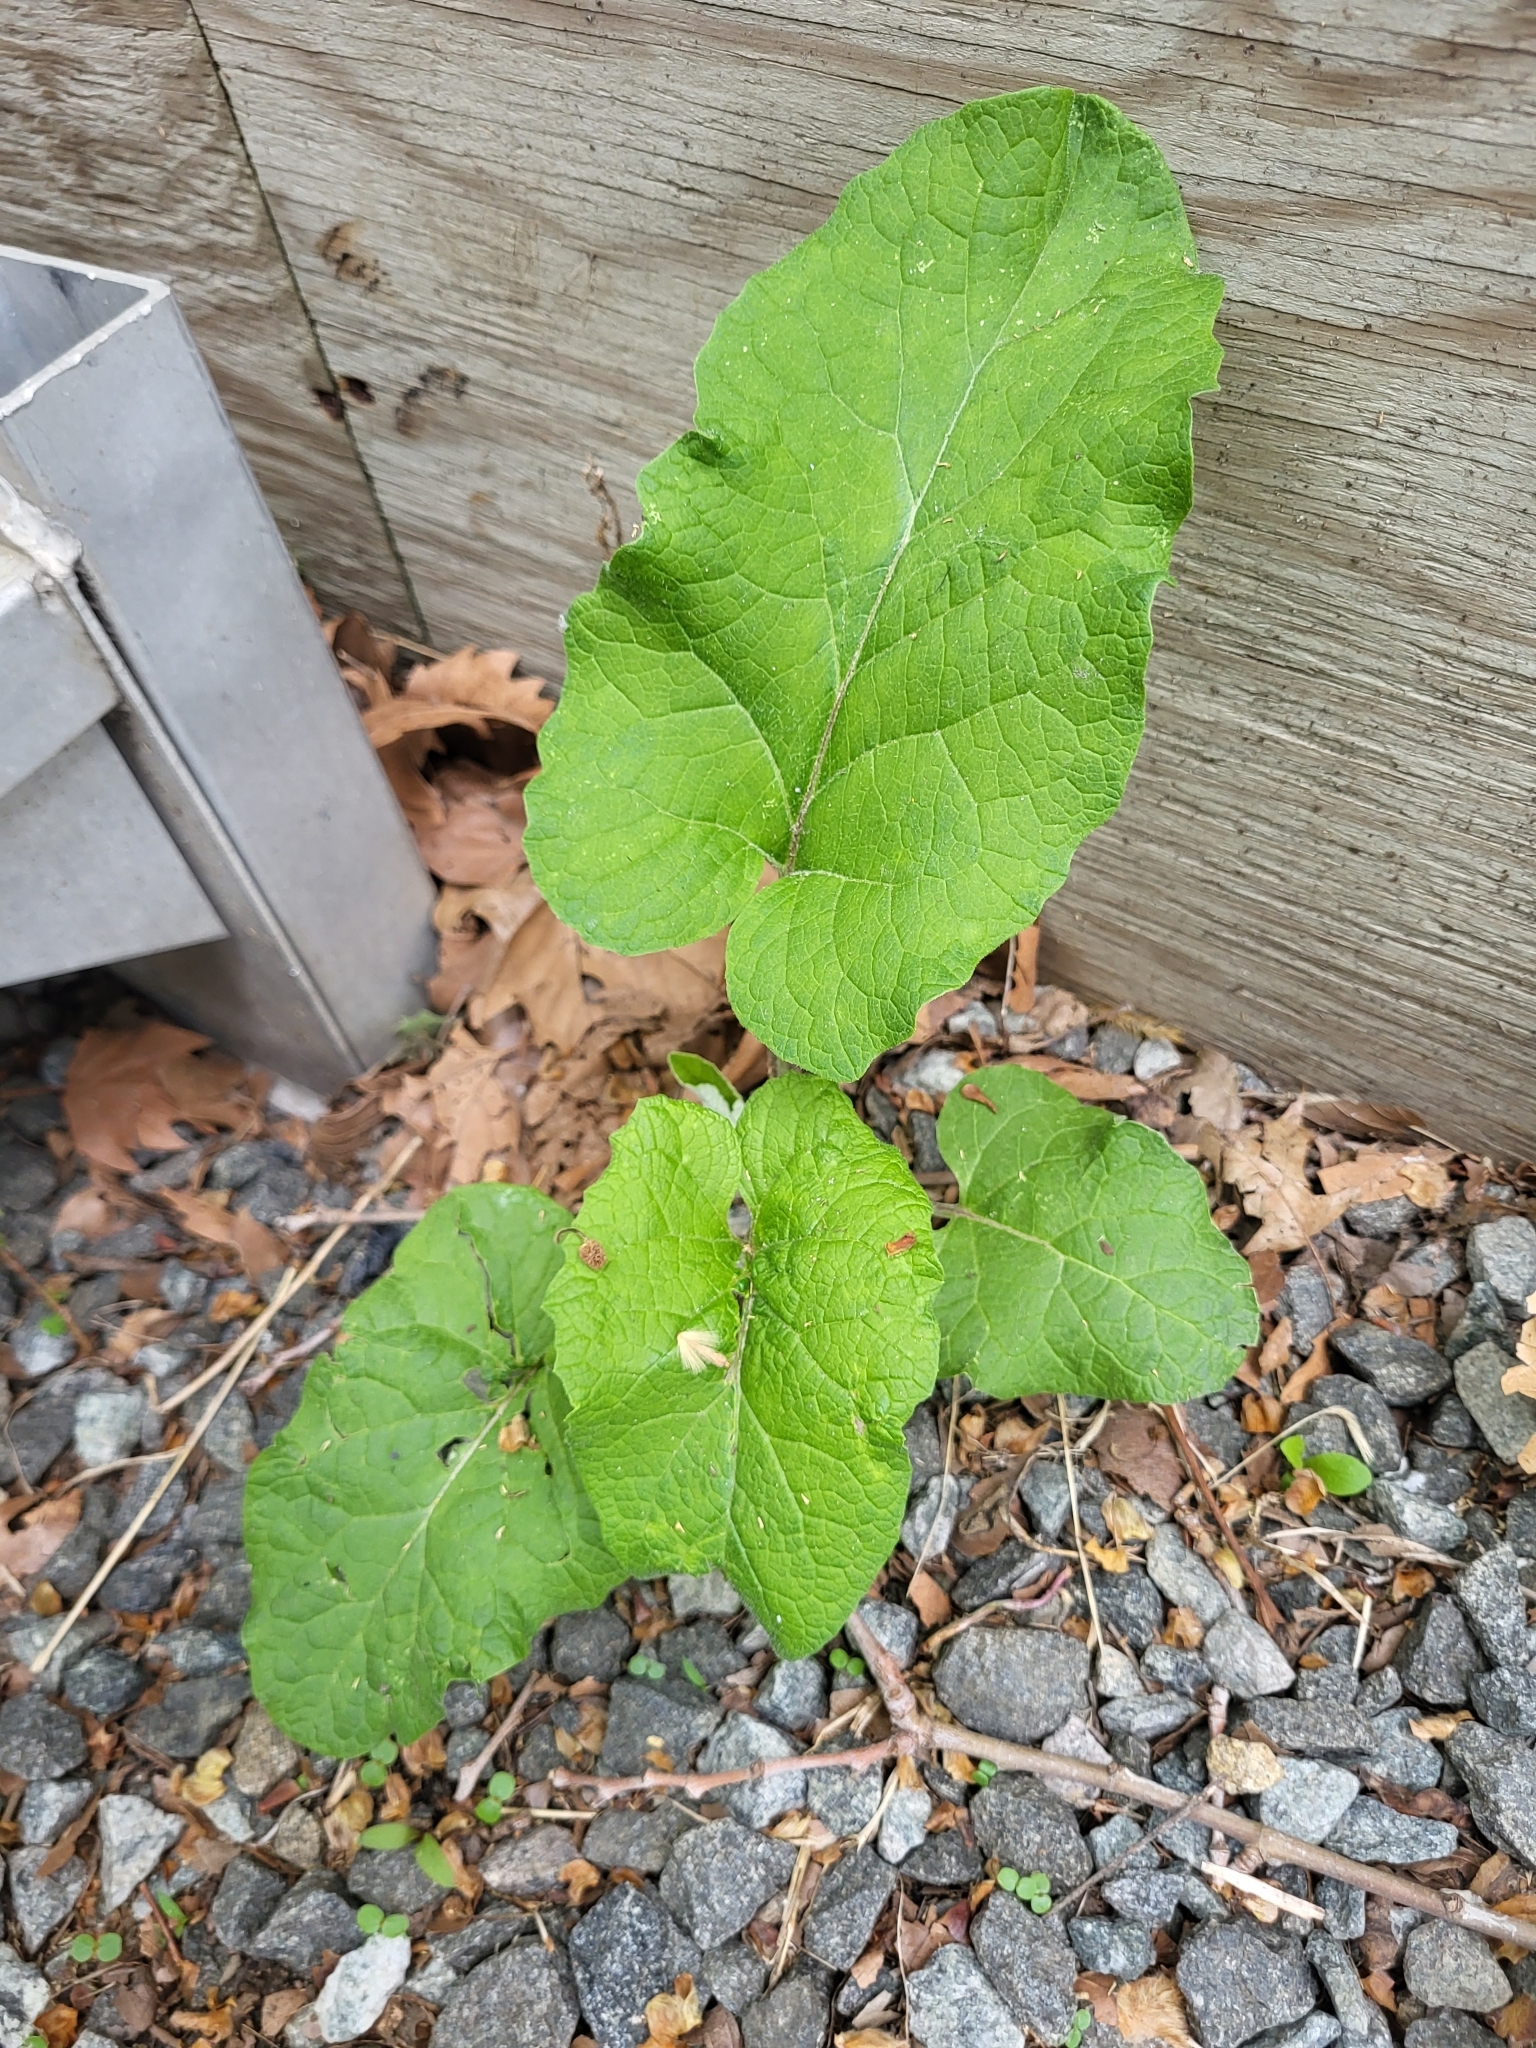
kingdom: Plantae
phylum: Tracheophyta
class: Magnoliopsida
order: Asterales
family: Asteraceae
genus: Arctium
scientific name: Arctium
